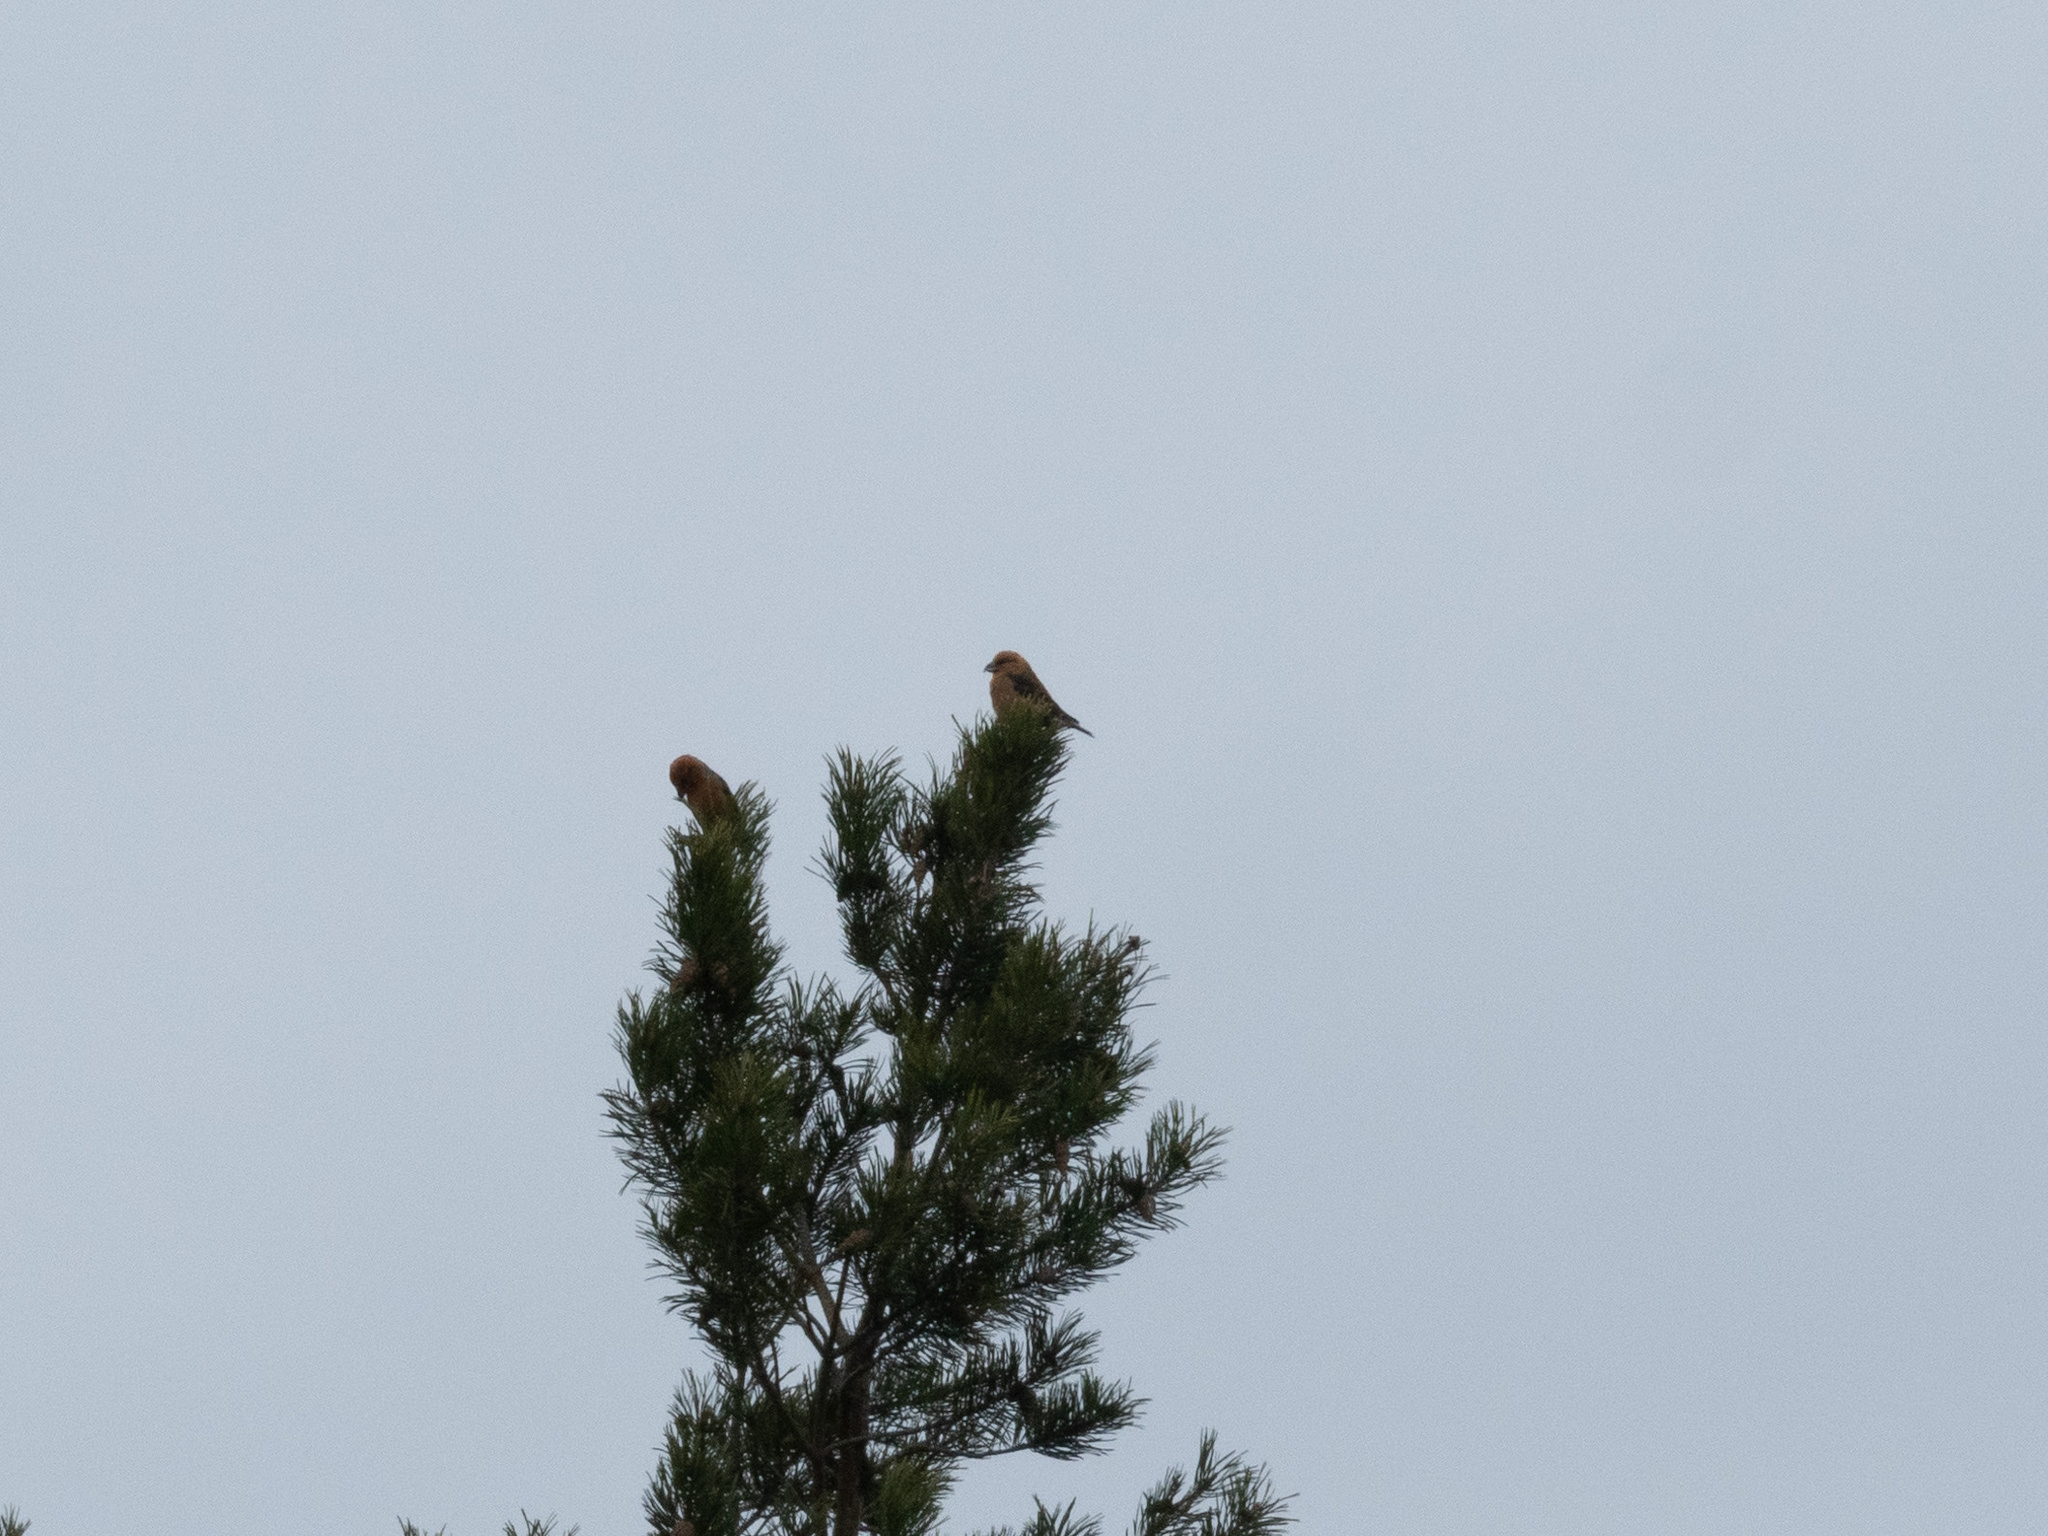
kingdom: Animalia
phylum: Chordata
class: Aves
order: Passeriformes
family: Fringillidae
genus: Loxia
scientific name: Loxia pytyopsittacus
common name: Parrot crossbill
